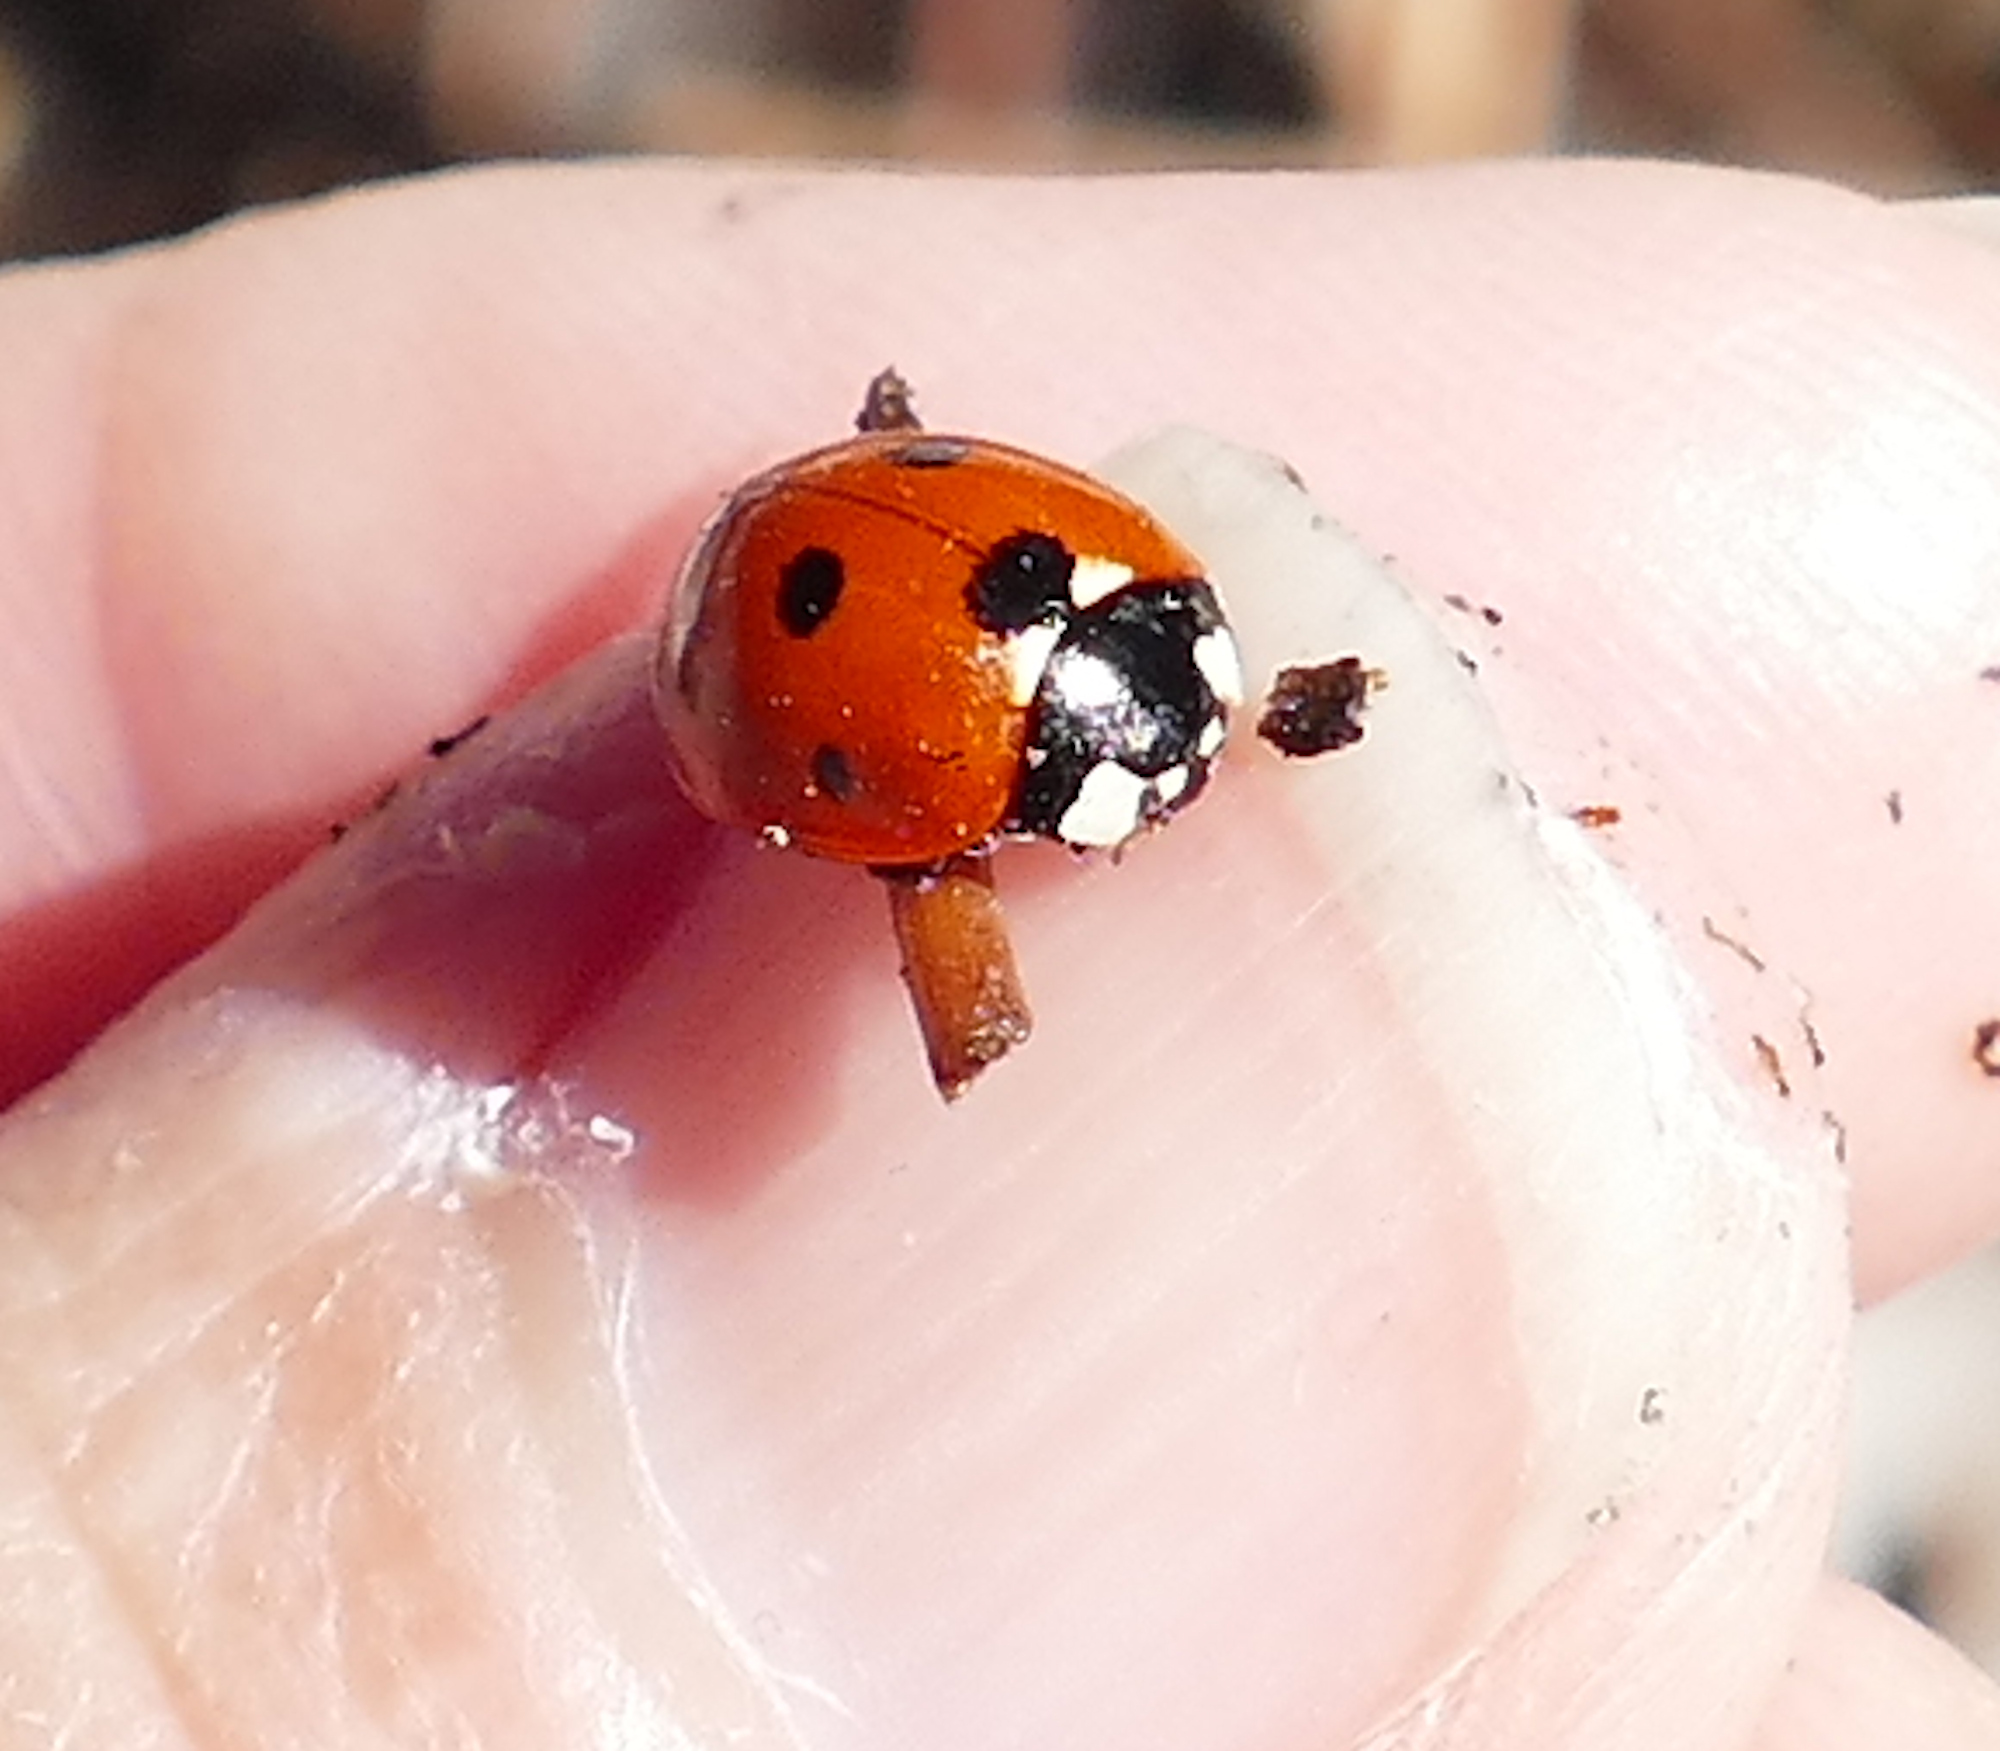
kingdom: Animalia
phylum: Arthropoda
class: Insecta
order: Coleoptera
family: Coccinellidae
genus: Coccinella
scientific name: Coccinella septempunctata
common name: Sevenspotted lady beetle
